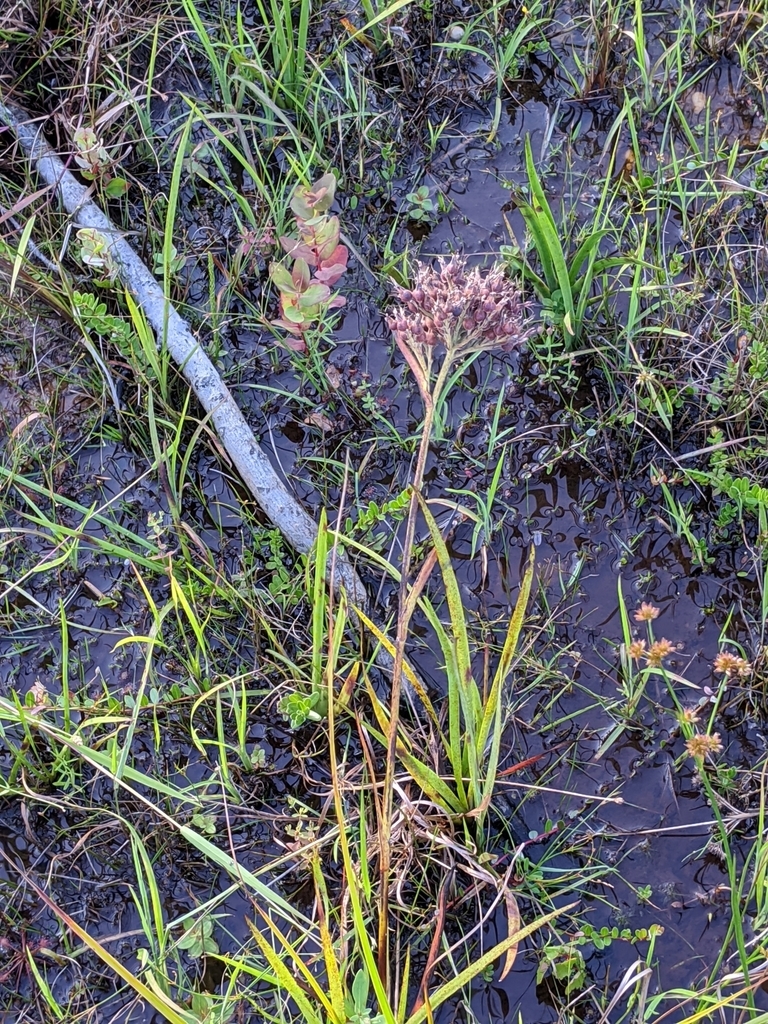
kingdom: Plantae
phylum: Tracheophyta
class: Liliopsida
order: Commelinales
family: Haemodoraceae
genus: Lachnanthes
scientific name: Lachnanthes caroliana
